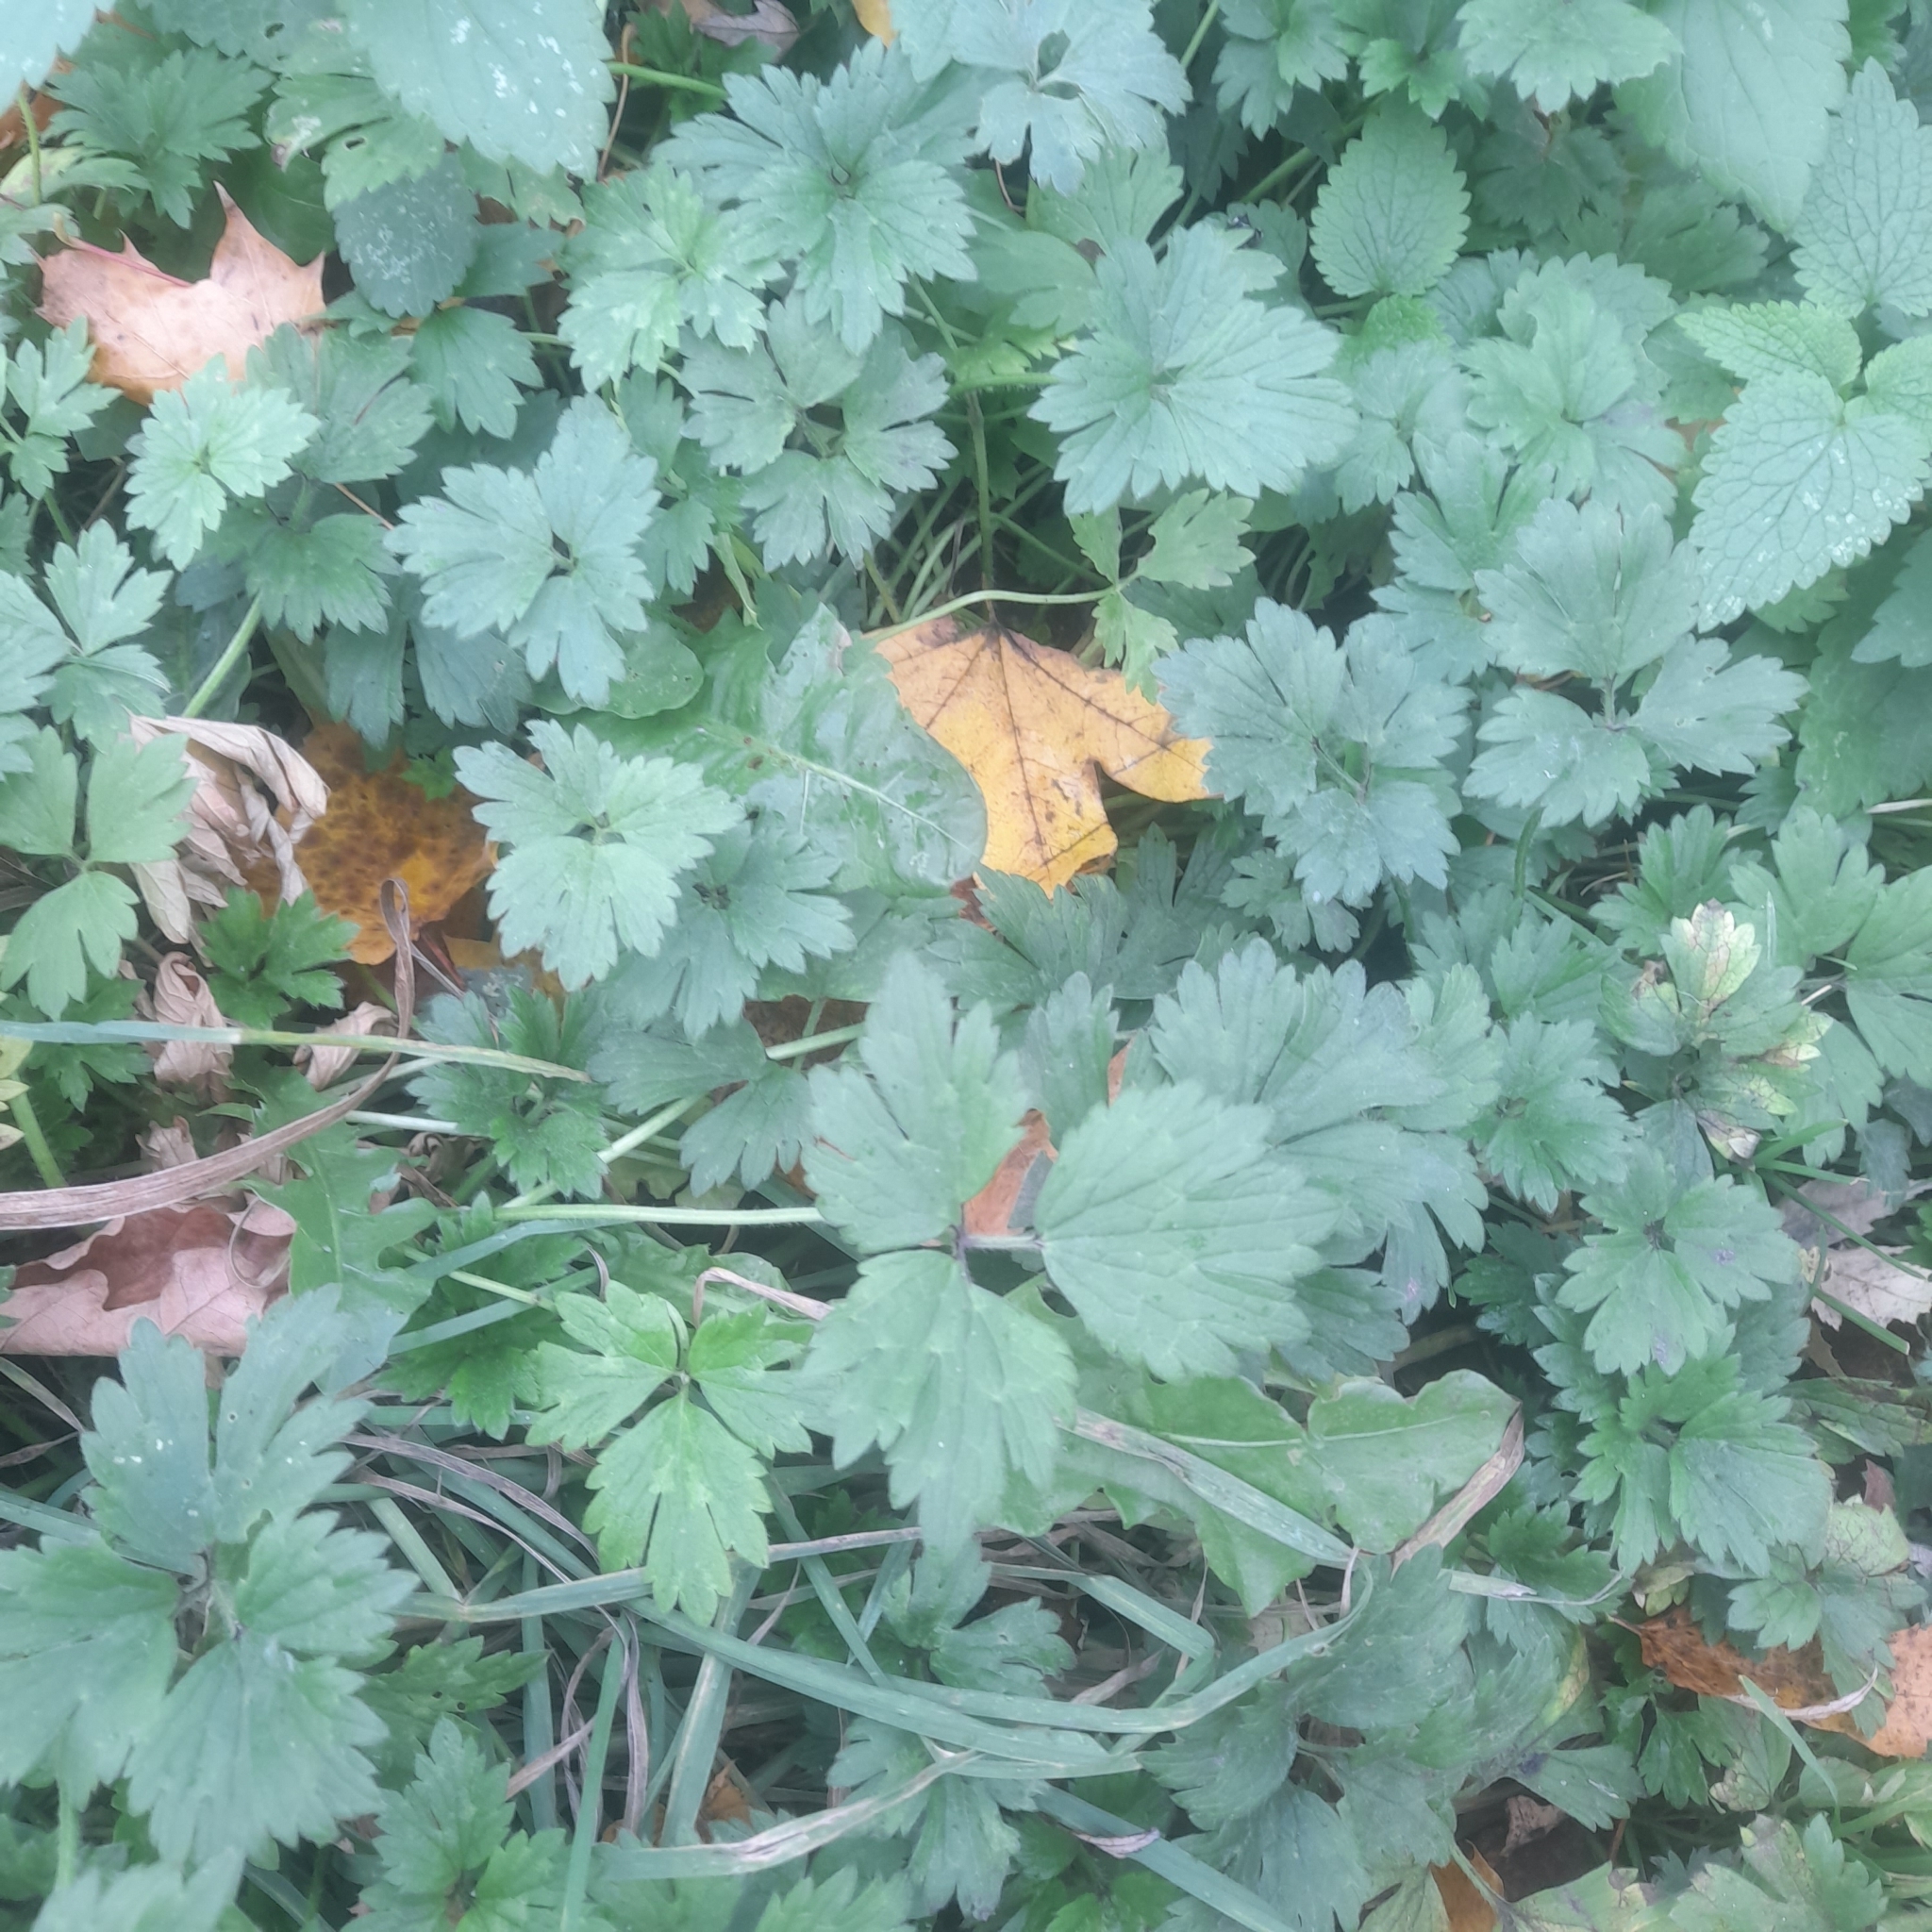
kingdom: Plantae
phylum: Tracheophyta
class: Magnoliopsida
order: Ranunculales
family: Ranunculaceae
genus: Ranunculus
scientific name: Ranunculus repens
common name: Creeping buttercup
